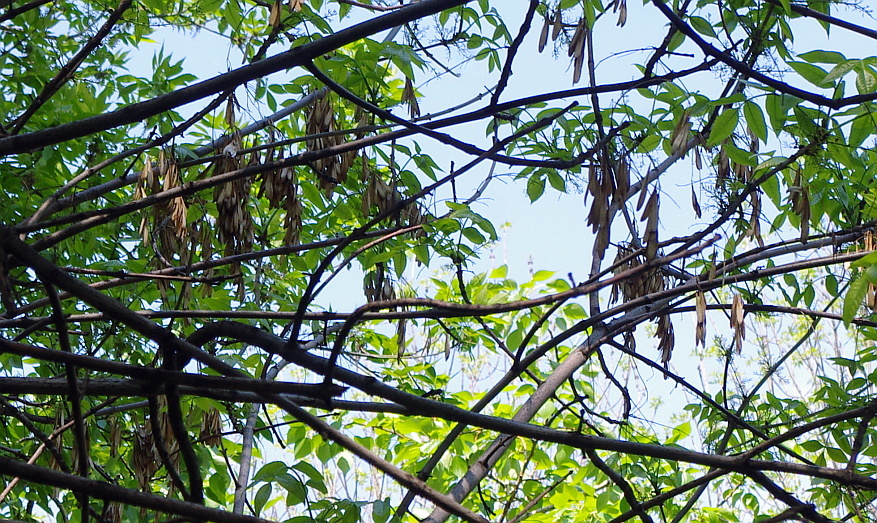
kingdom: Plantae
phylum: Tracheophyta
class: Magnoliopsida
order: Lamiales
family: Oleaceae
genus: Fraxinus
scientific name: Fraxinus pennsylvanica
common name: Green ash
